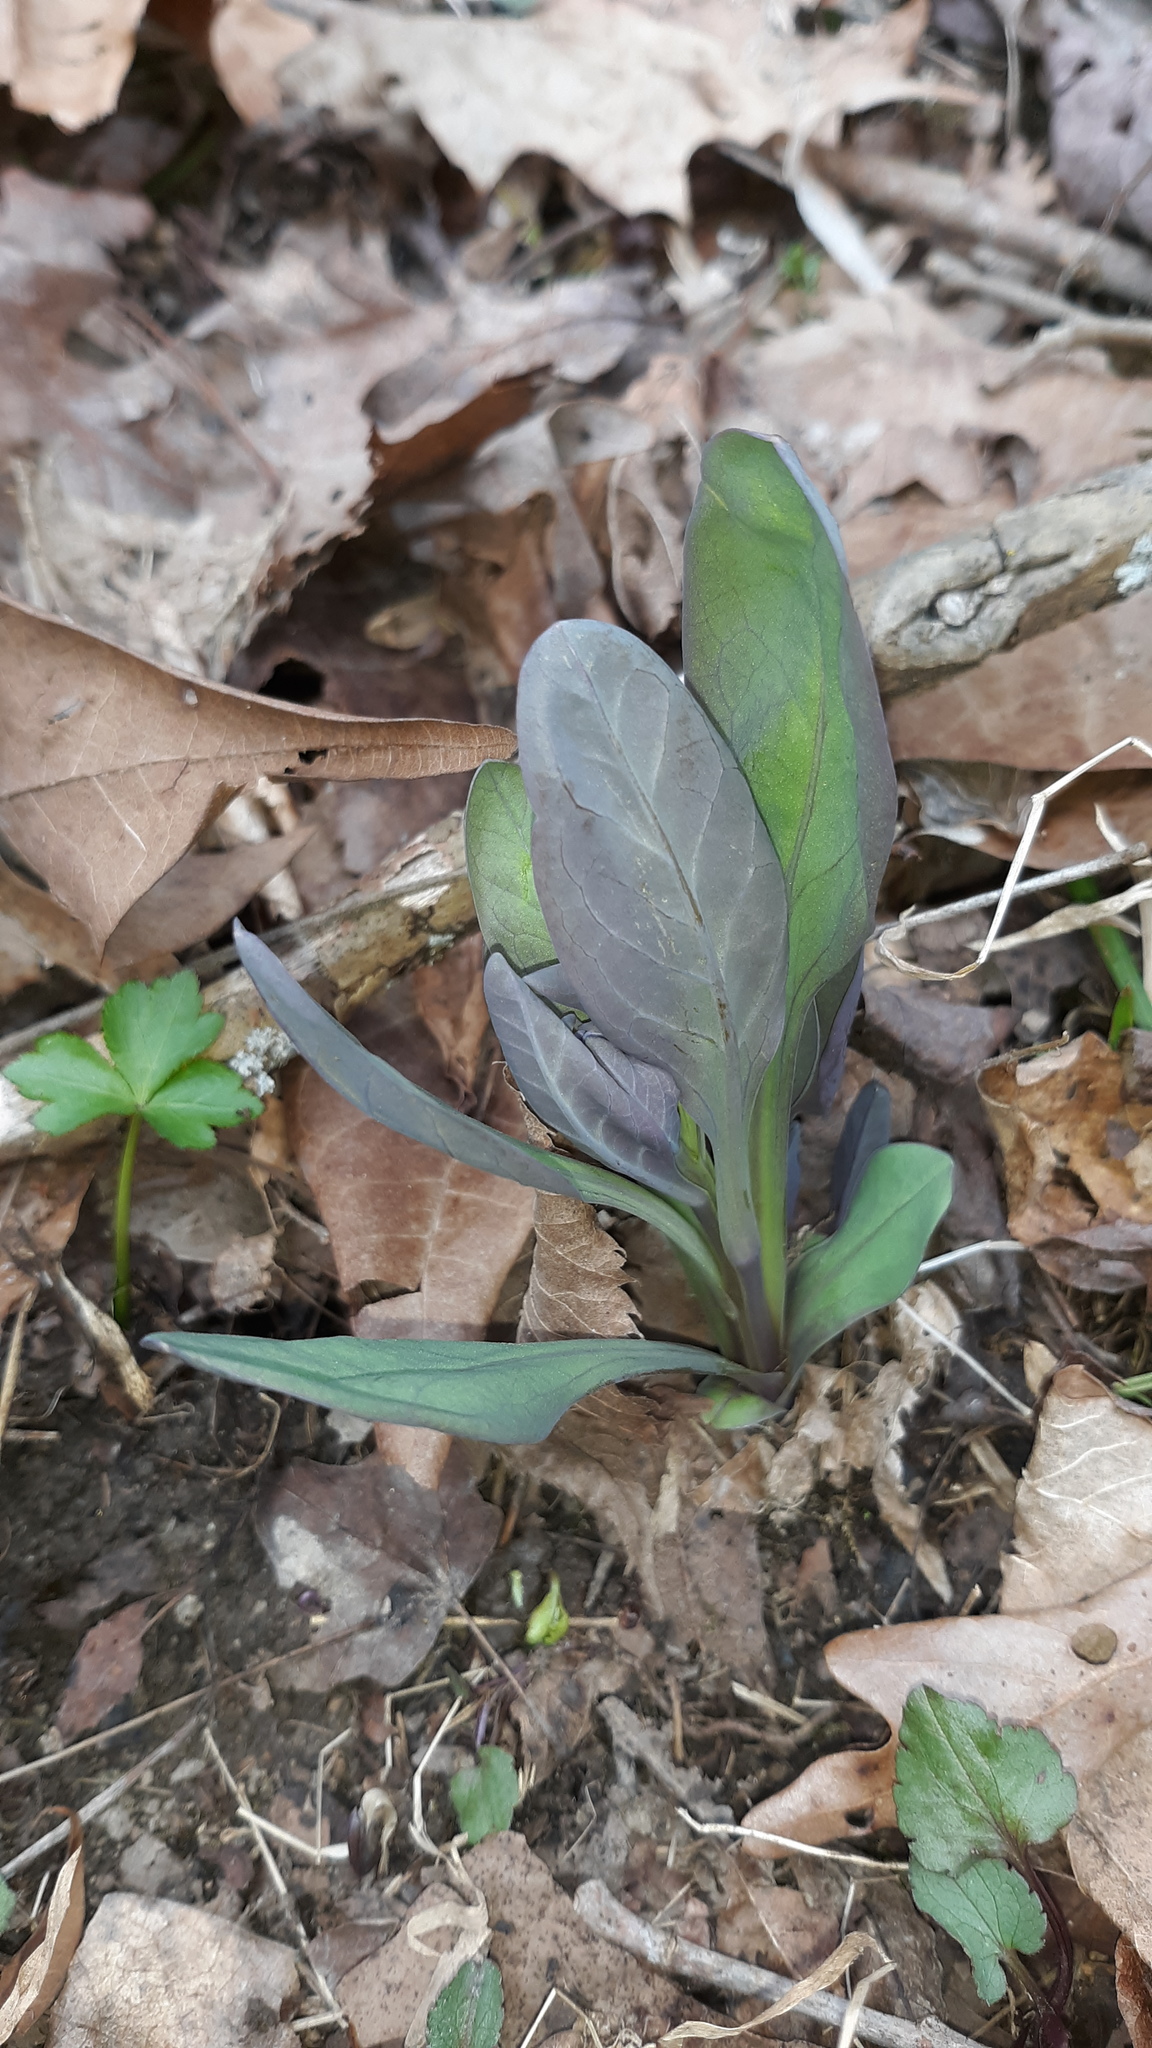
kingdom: Plantae
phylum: Tracheophyta
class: Magnoliopsida
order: Boraginales
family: Boraginaceae
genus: Mertensia
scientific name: Mertensia virginica
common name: Virginia bluebells
